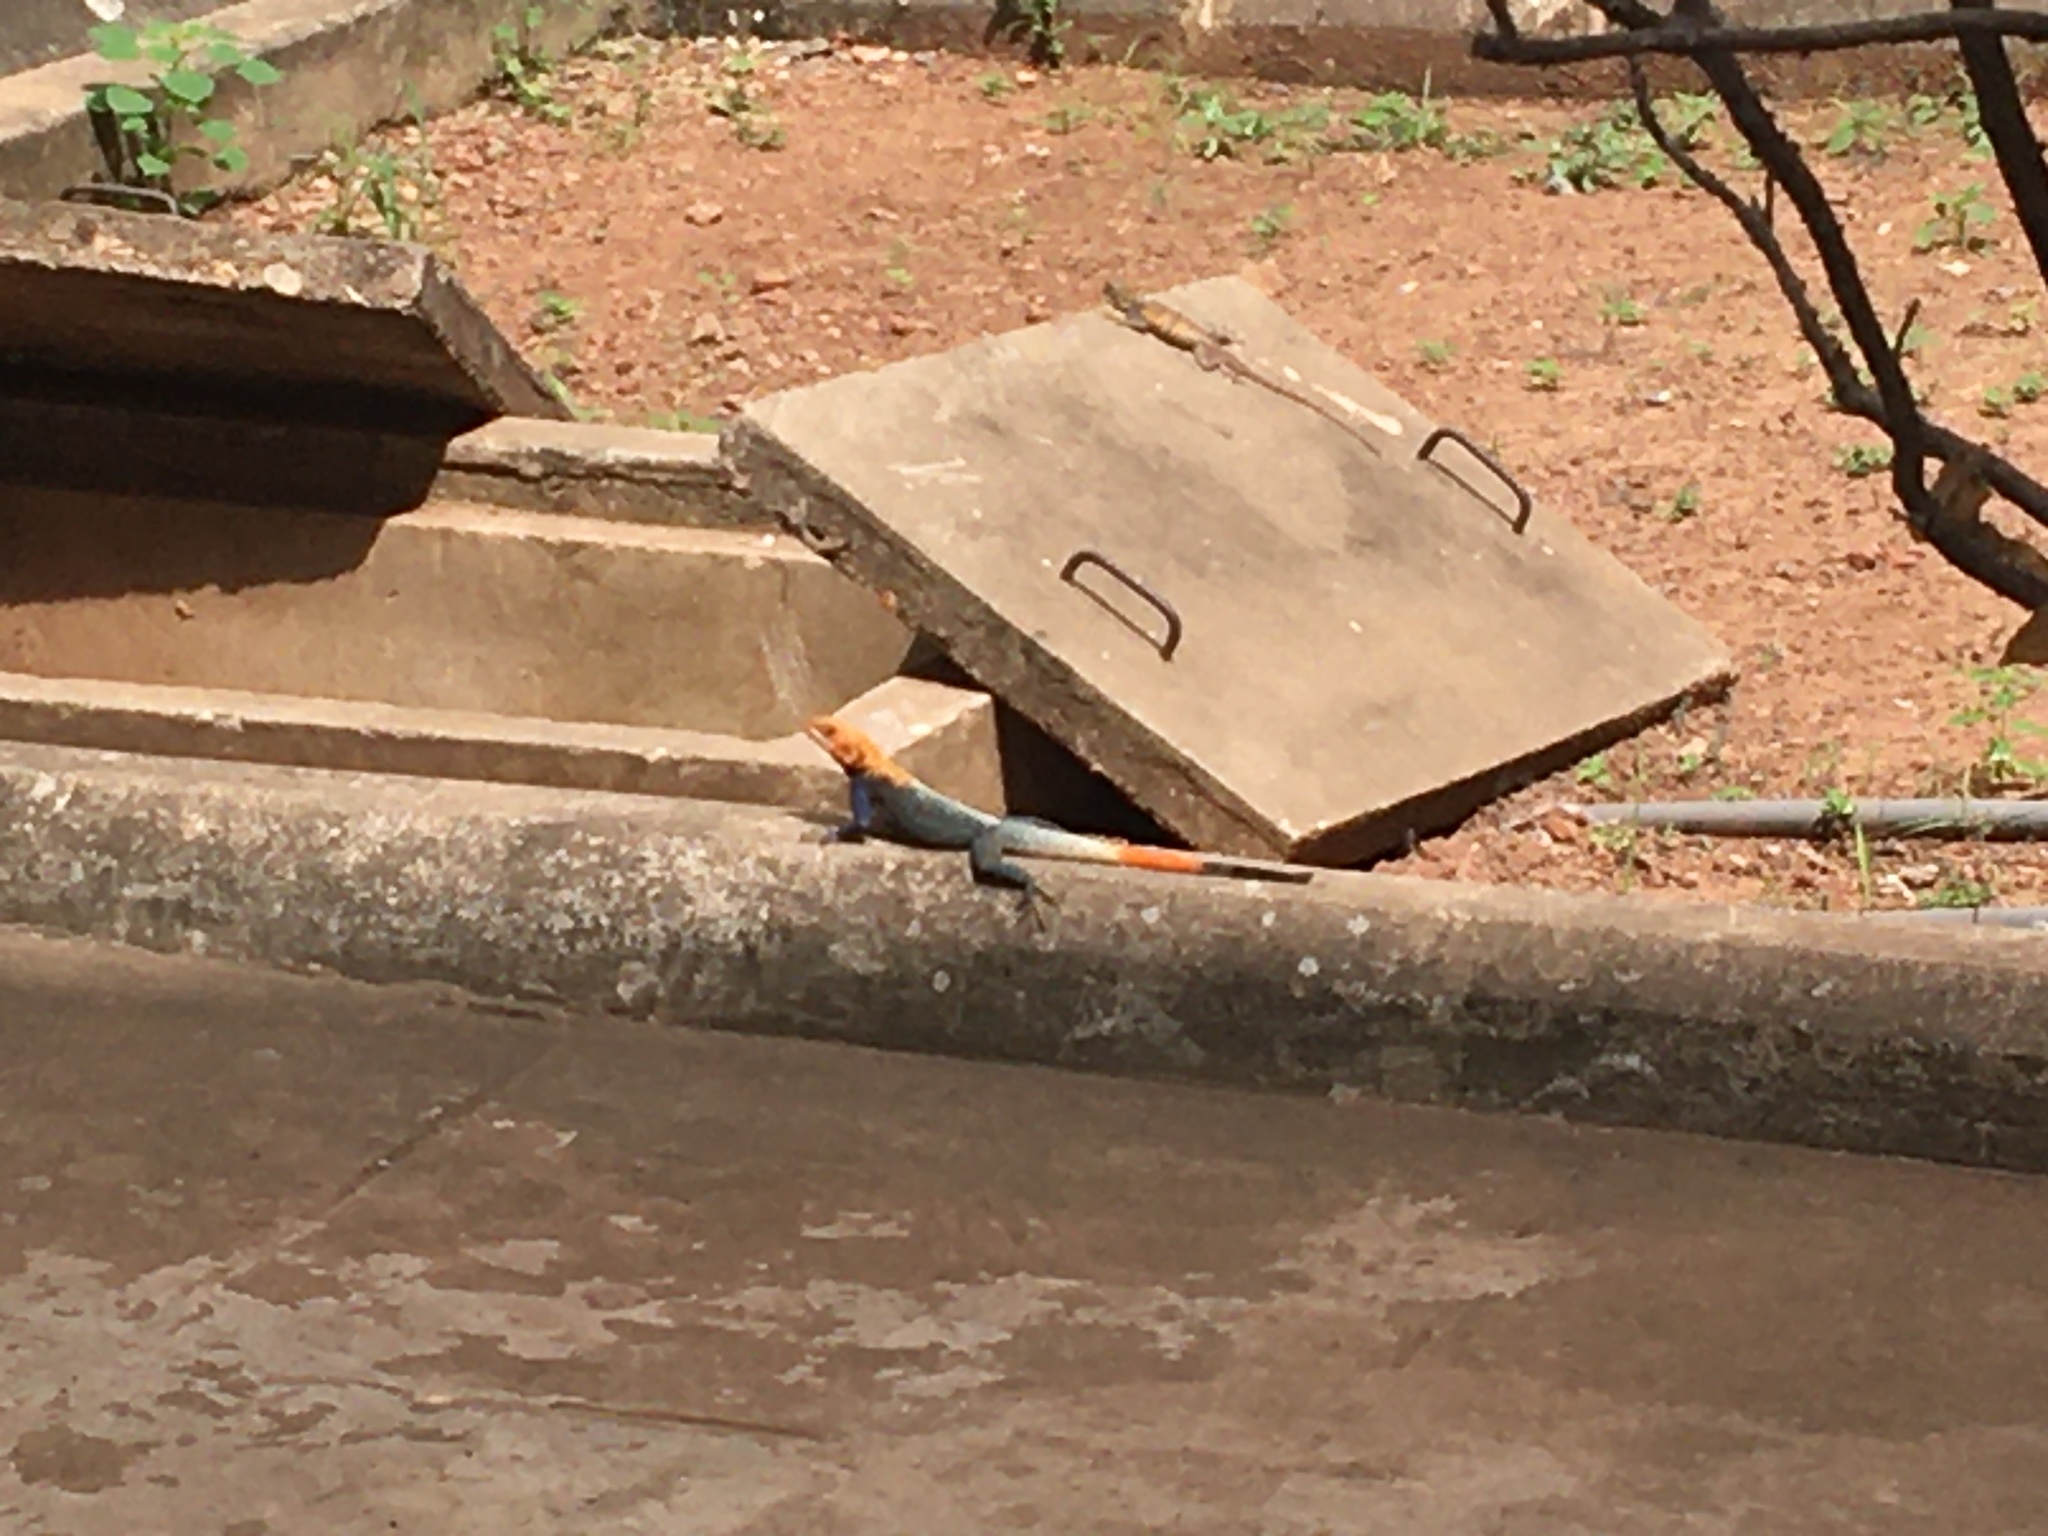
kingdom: Animalia
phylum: Chordata
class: Squamata
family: Agamidae
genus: Agama
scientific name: Agama agama
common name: Common agama
